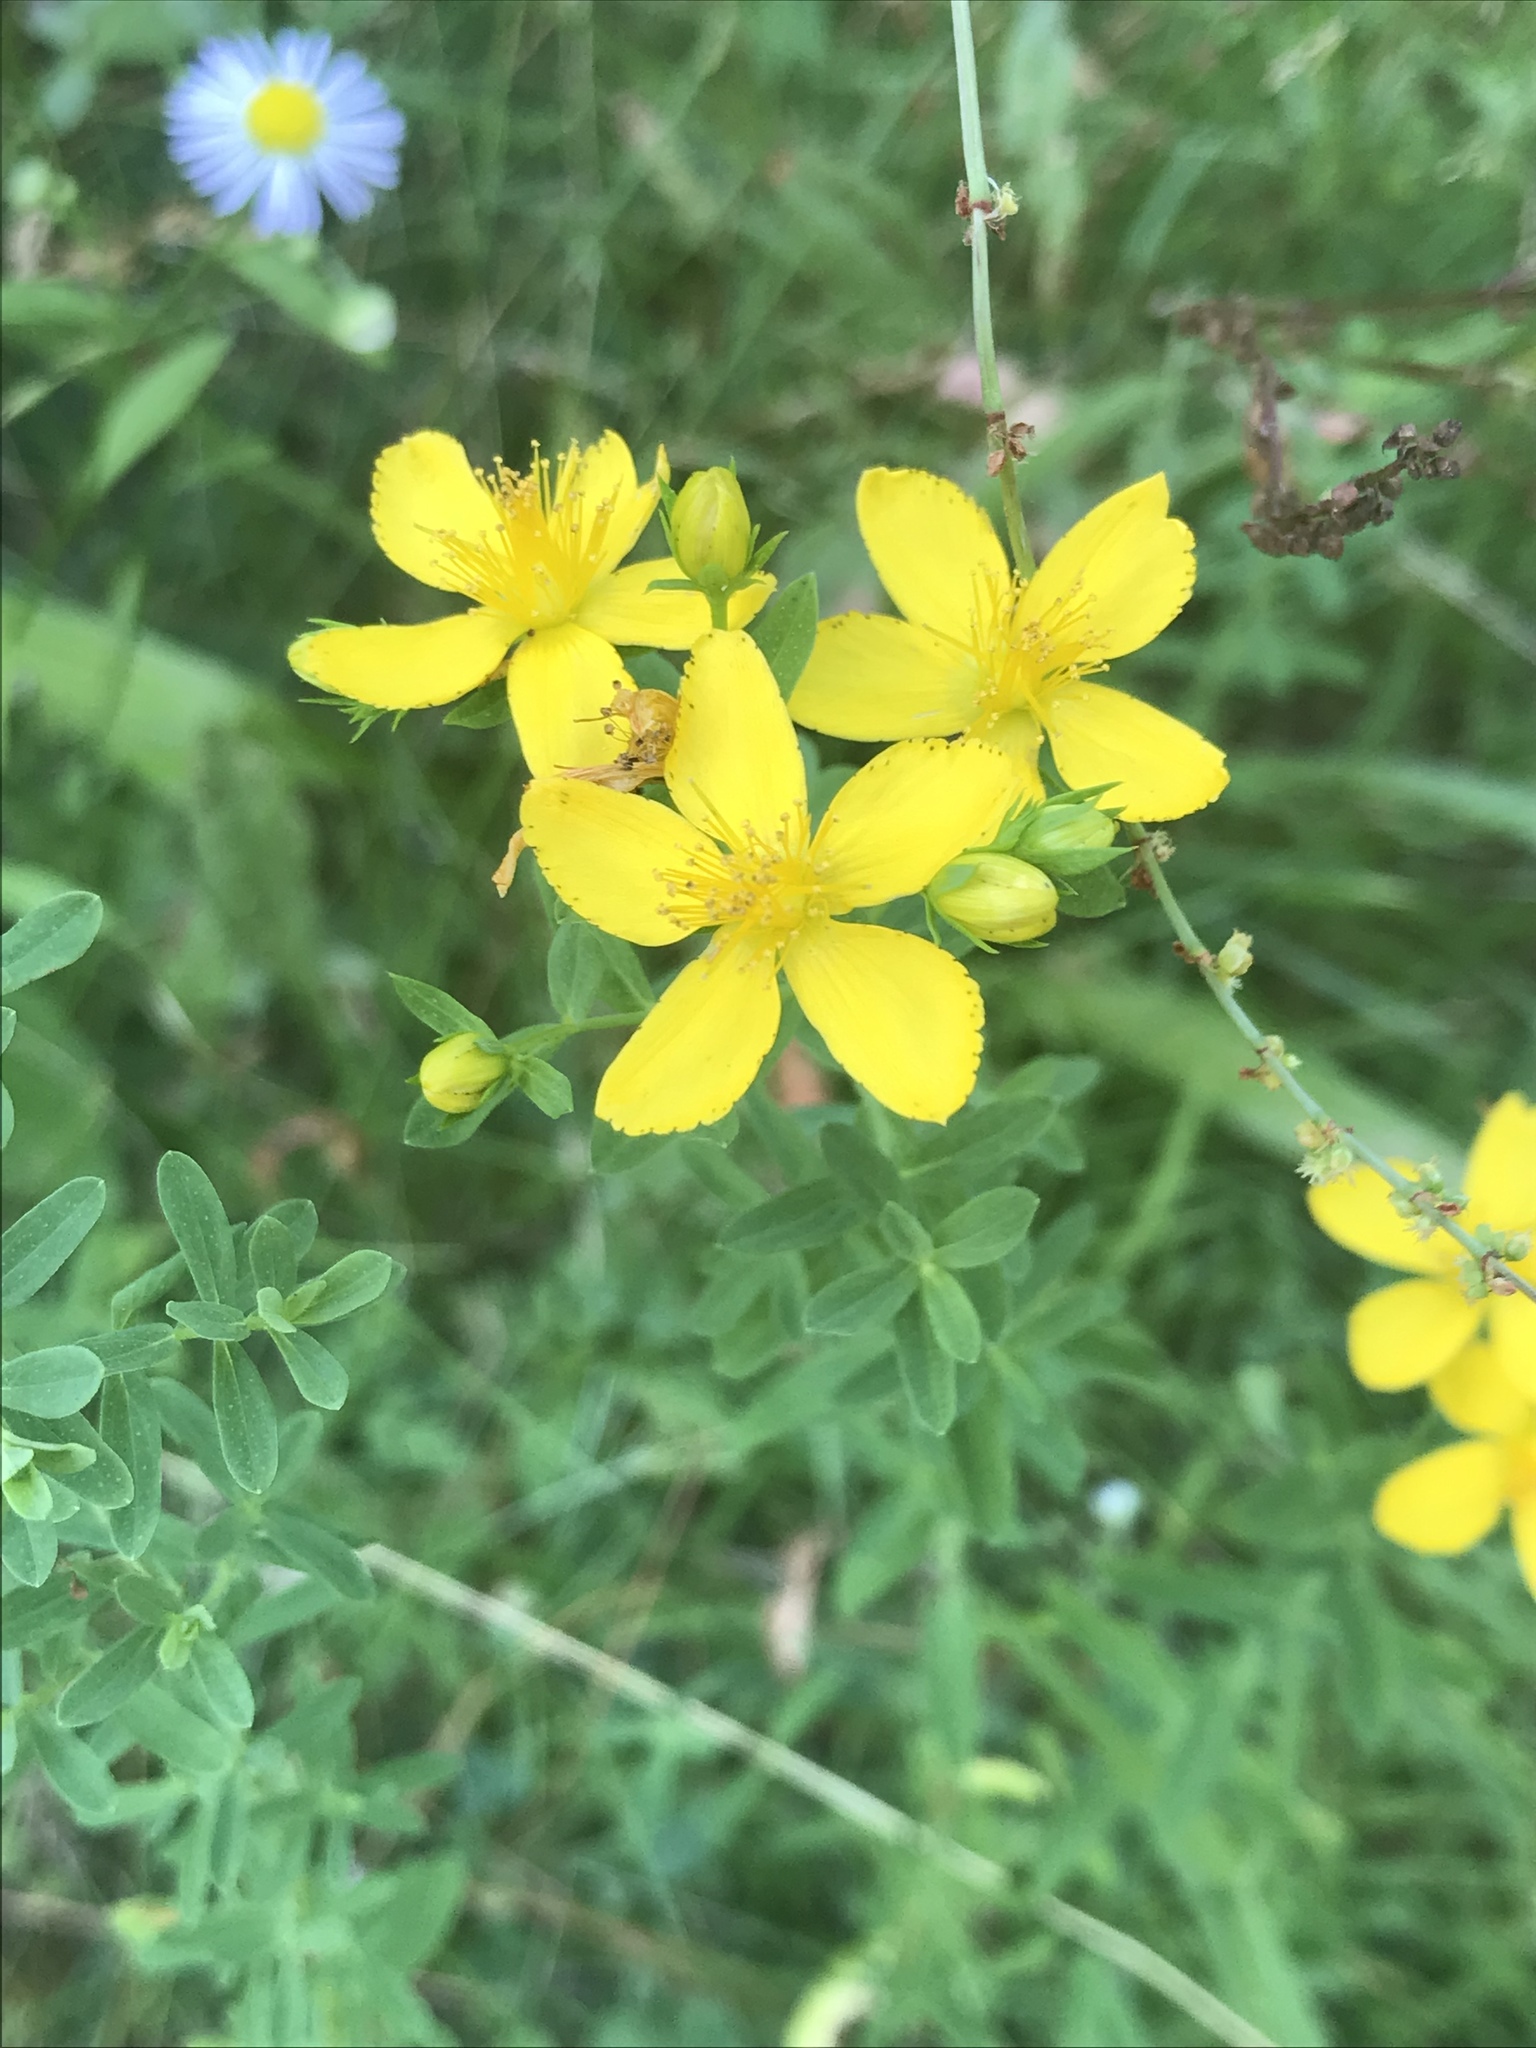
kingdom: Plantae
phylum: Tracheophyta
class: Magnoliopsida
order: Malpighiales
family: Hypericaceae
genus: Hypericum
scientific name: Hypericum perforatum
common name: Common st. johnswort
